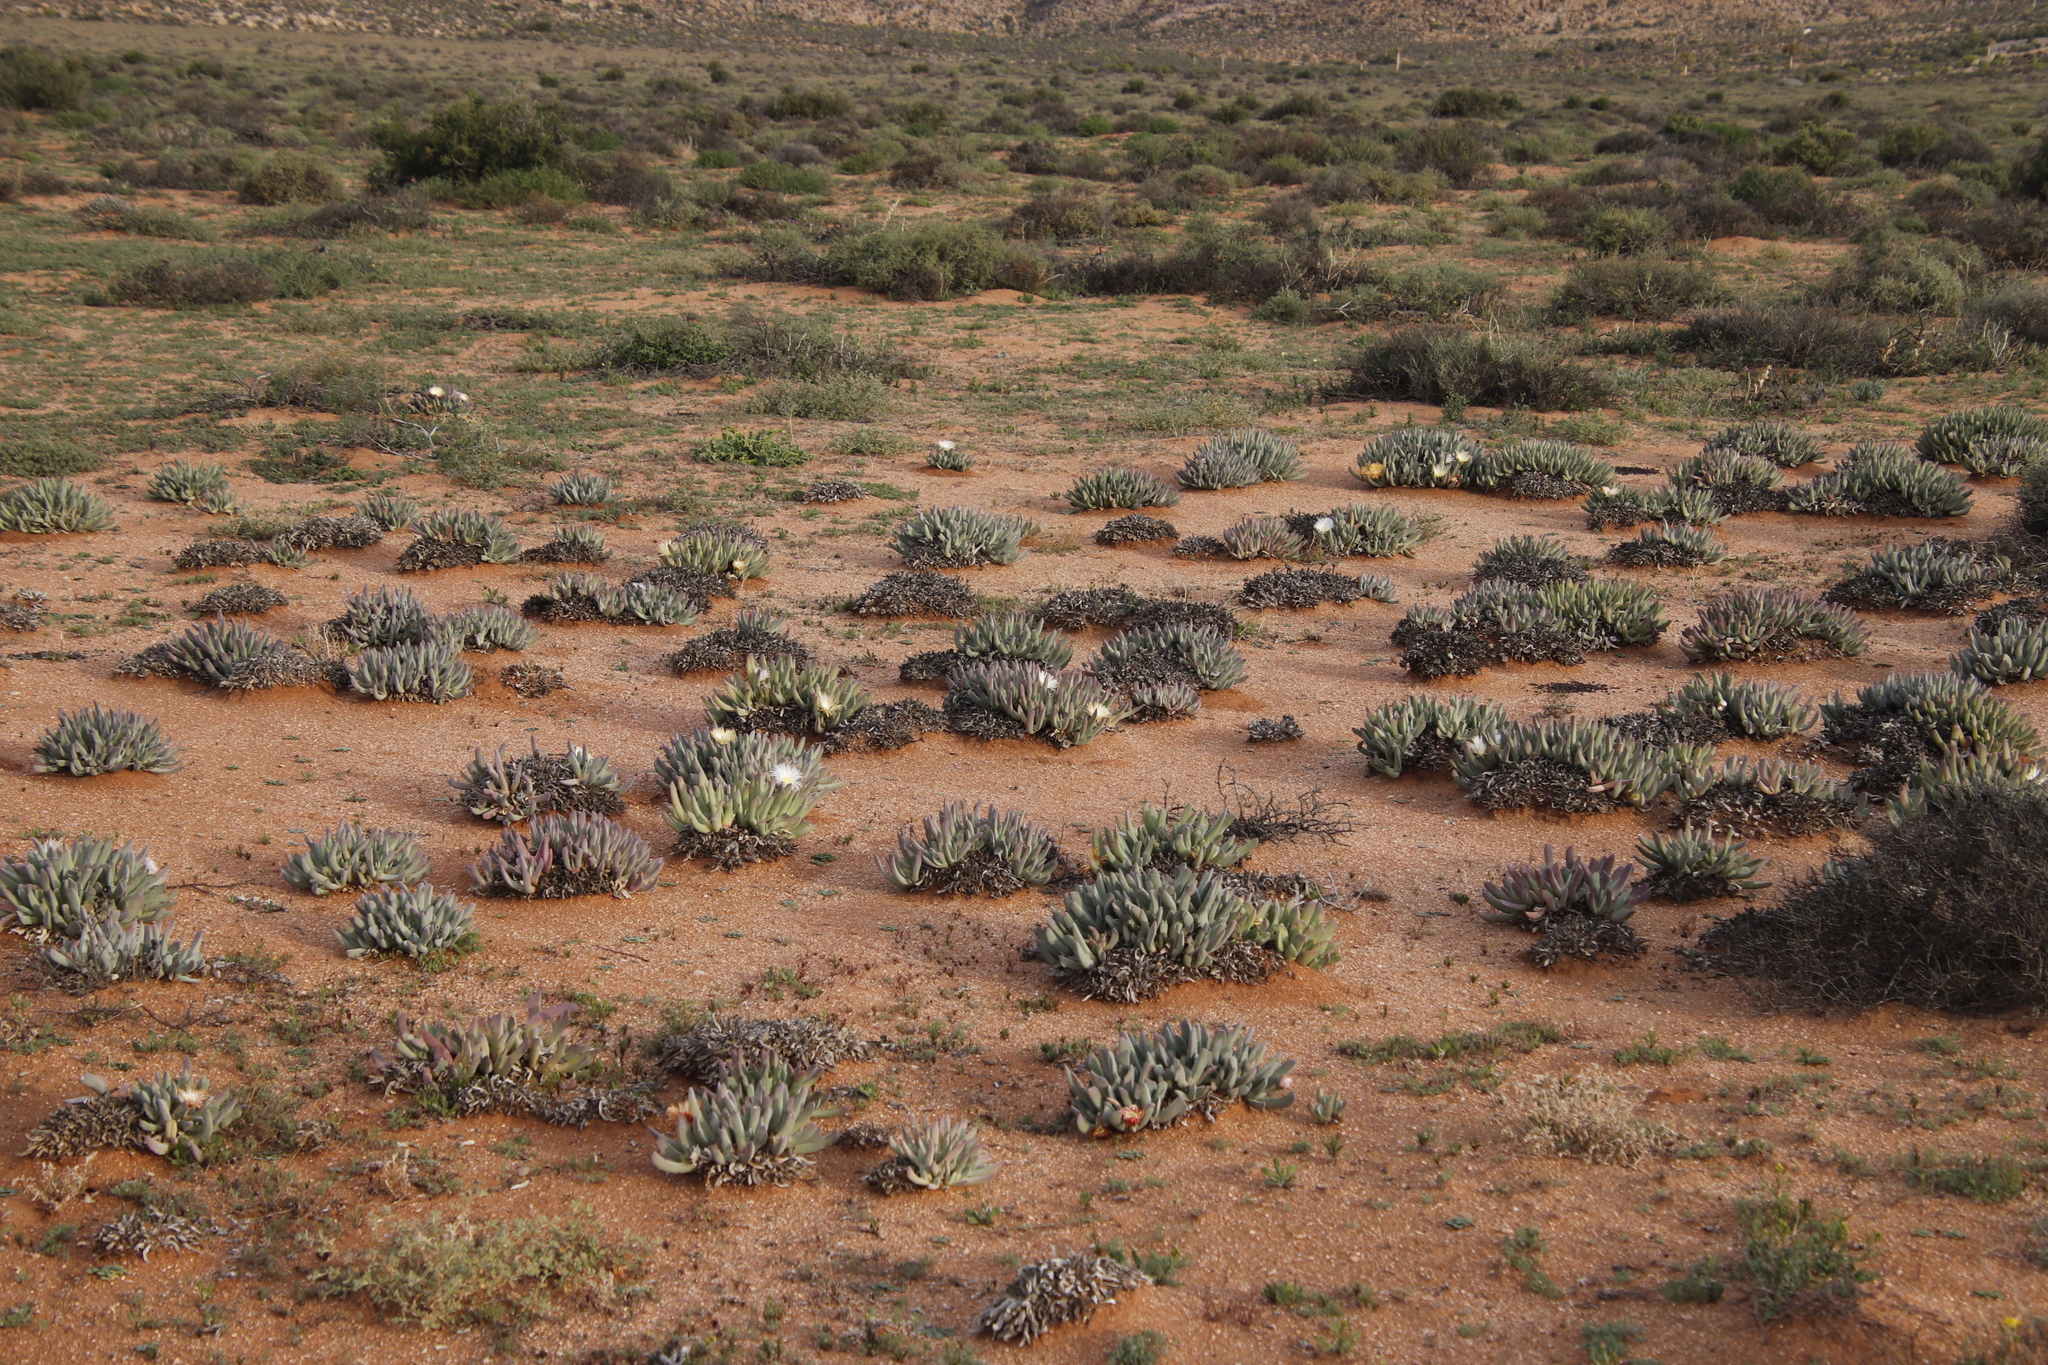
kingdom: Plantae
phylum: Tracheophyta
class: Magnoliopsida
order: Caryophyllales
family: Aizoaceae
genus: Cheiridopsis
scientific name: Cheiridopsis denticulata
